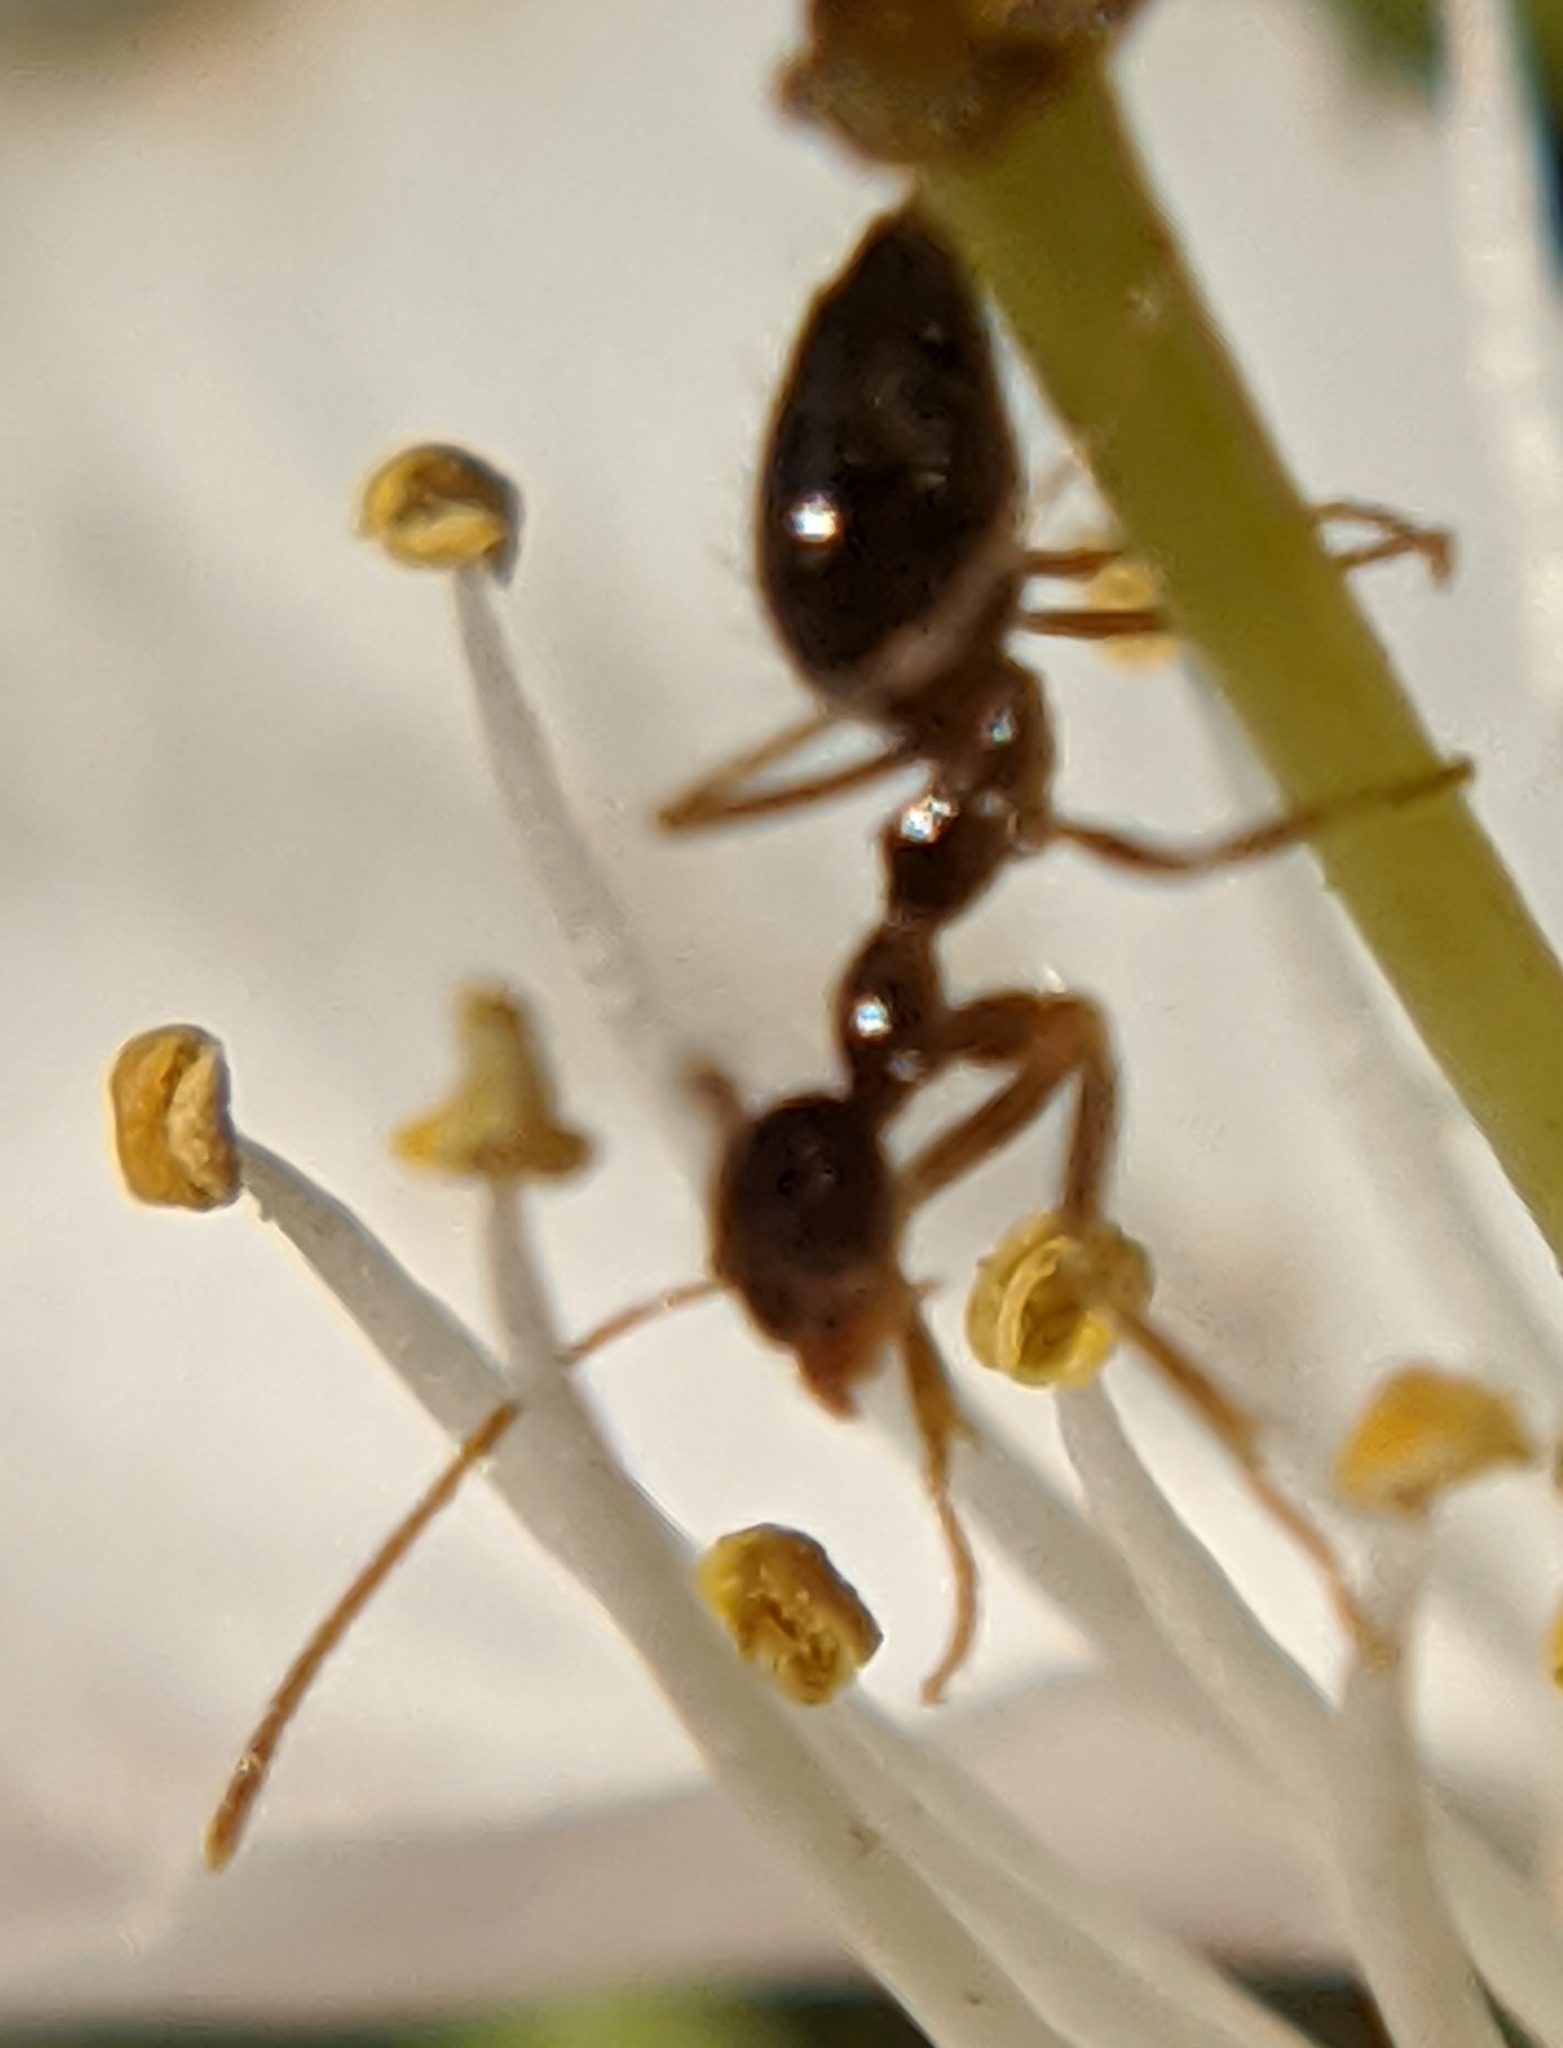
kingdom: Animalia
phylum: Arthropoda
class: Insecta
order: Hymenoptera
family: Formicidae
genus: Prenolepis
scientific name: Prenolepis imparis
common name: Small honey ant
